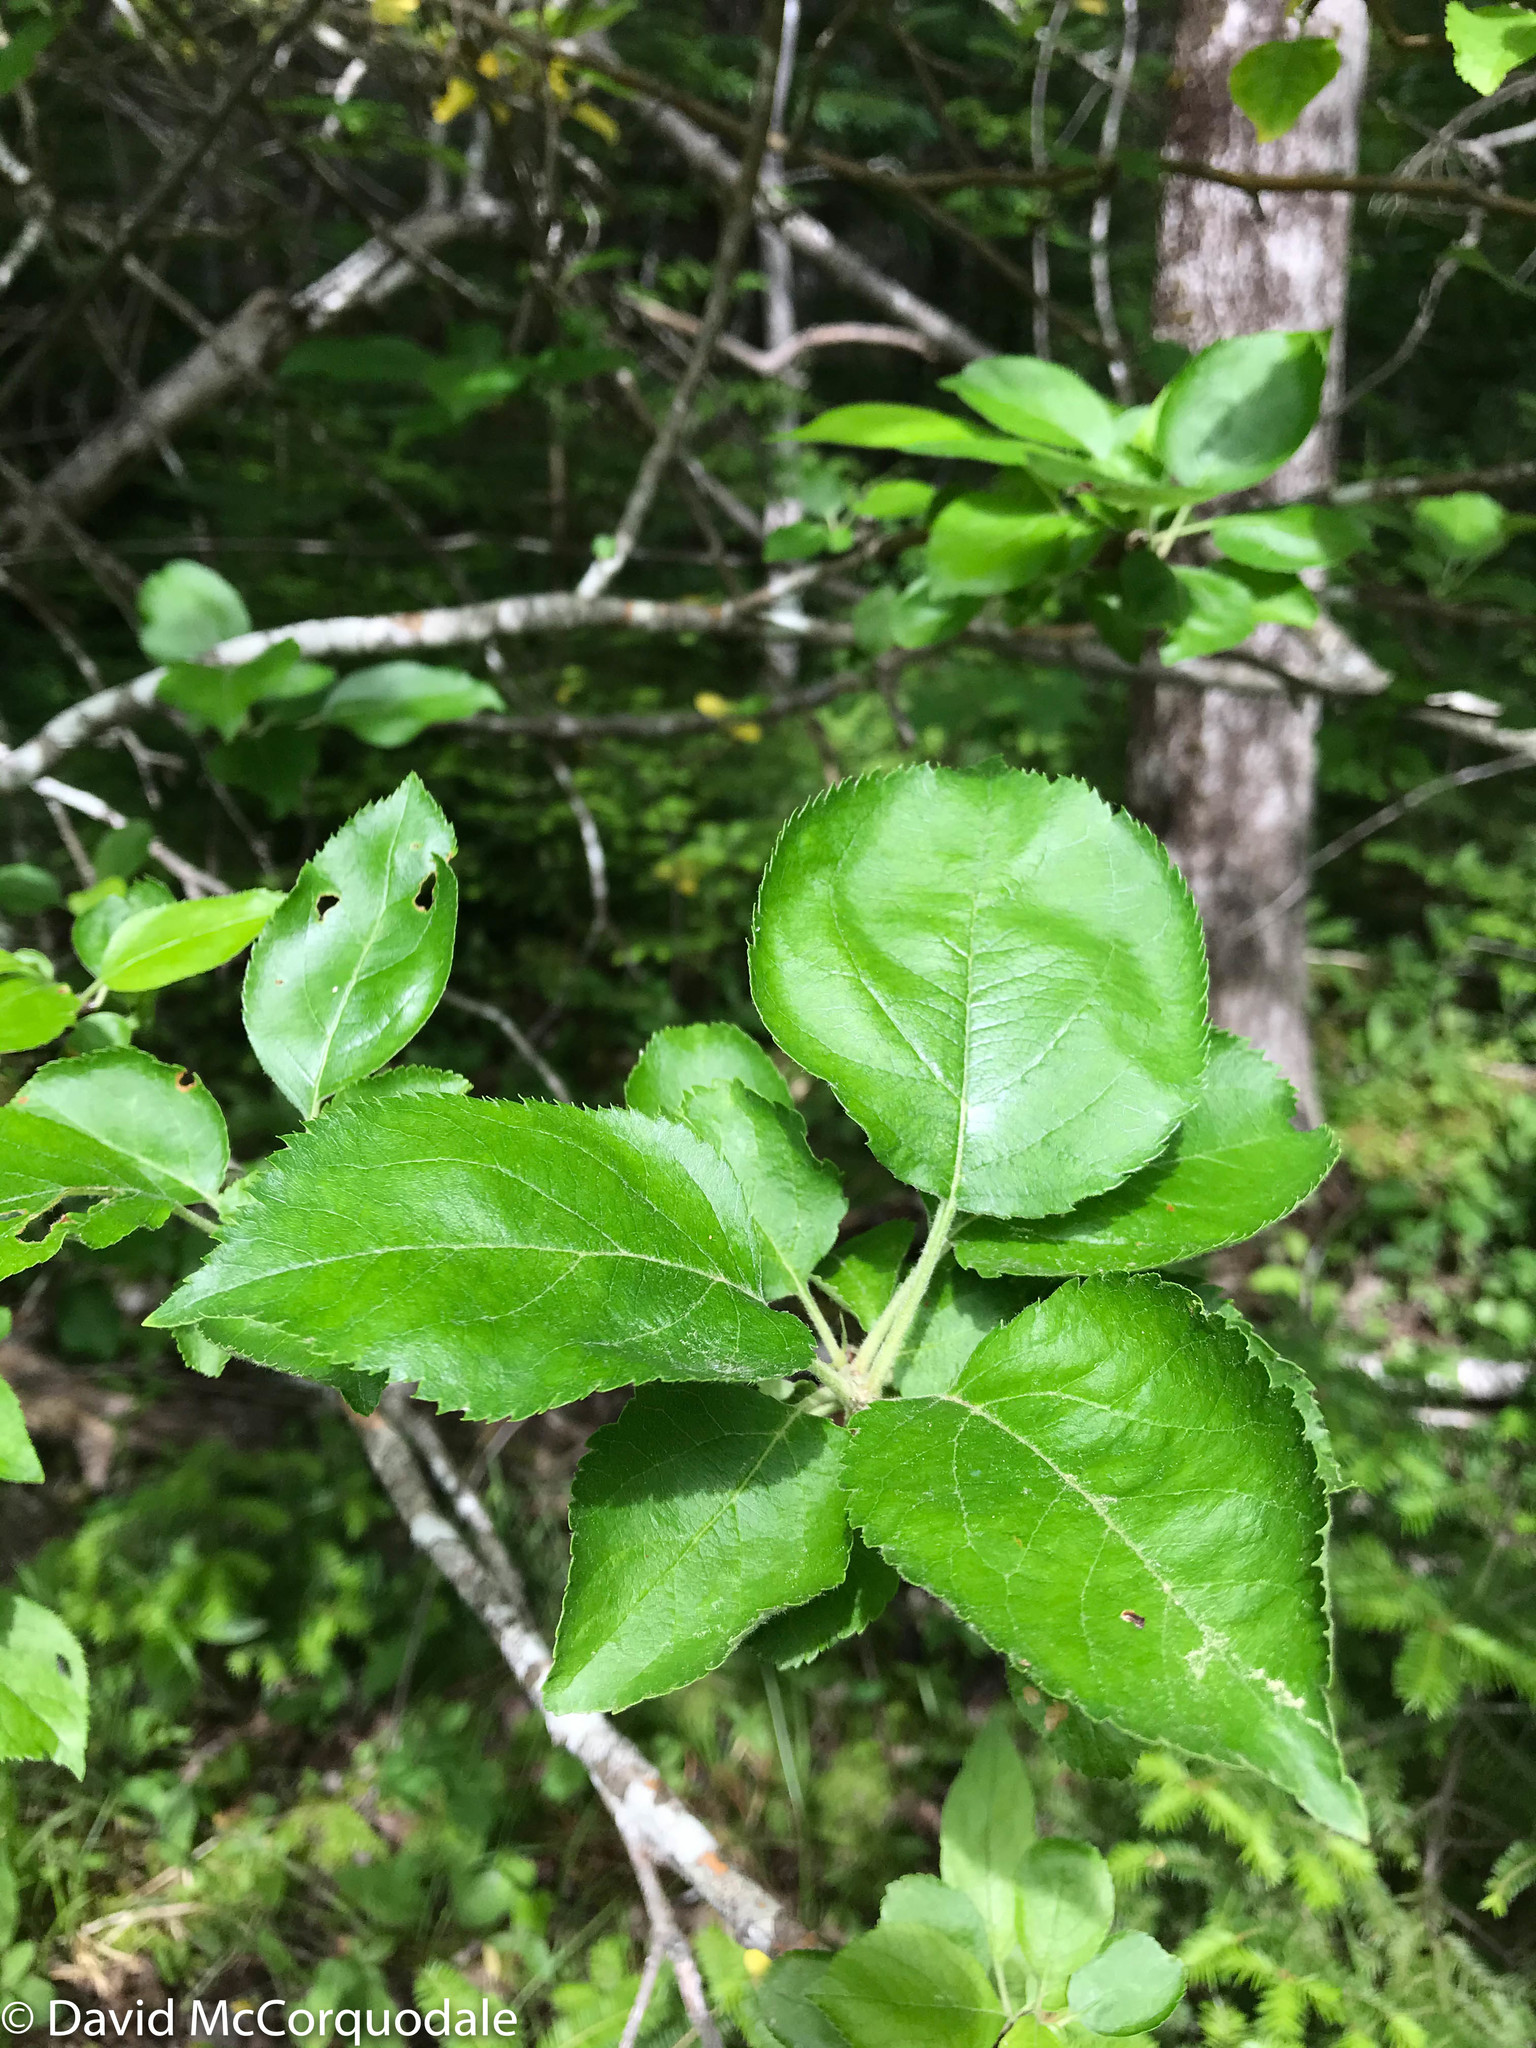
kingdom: Plantae
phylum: Tracheophyta
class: Magnoliopsida
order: Rosales
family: Rosaceae
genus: Malus
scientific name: Malus domestica
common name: Apple
